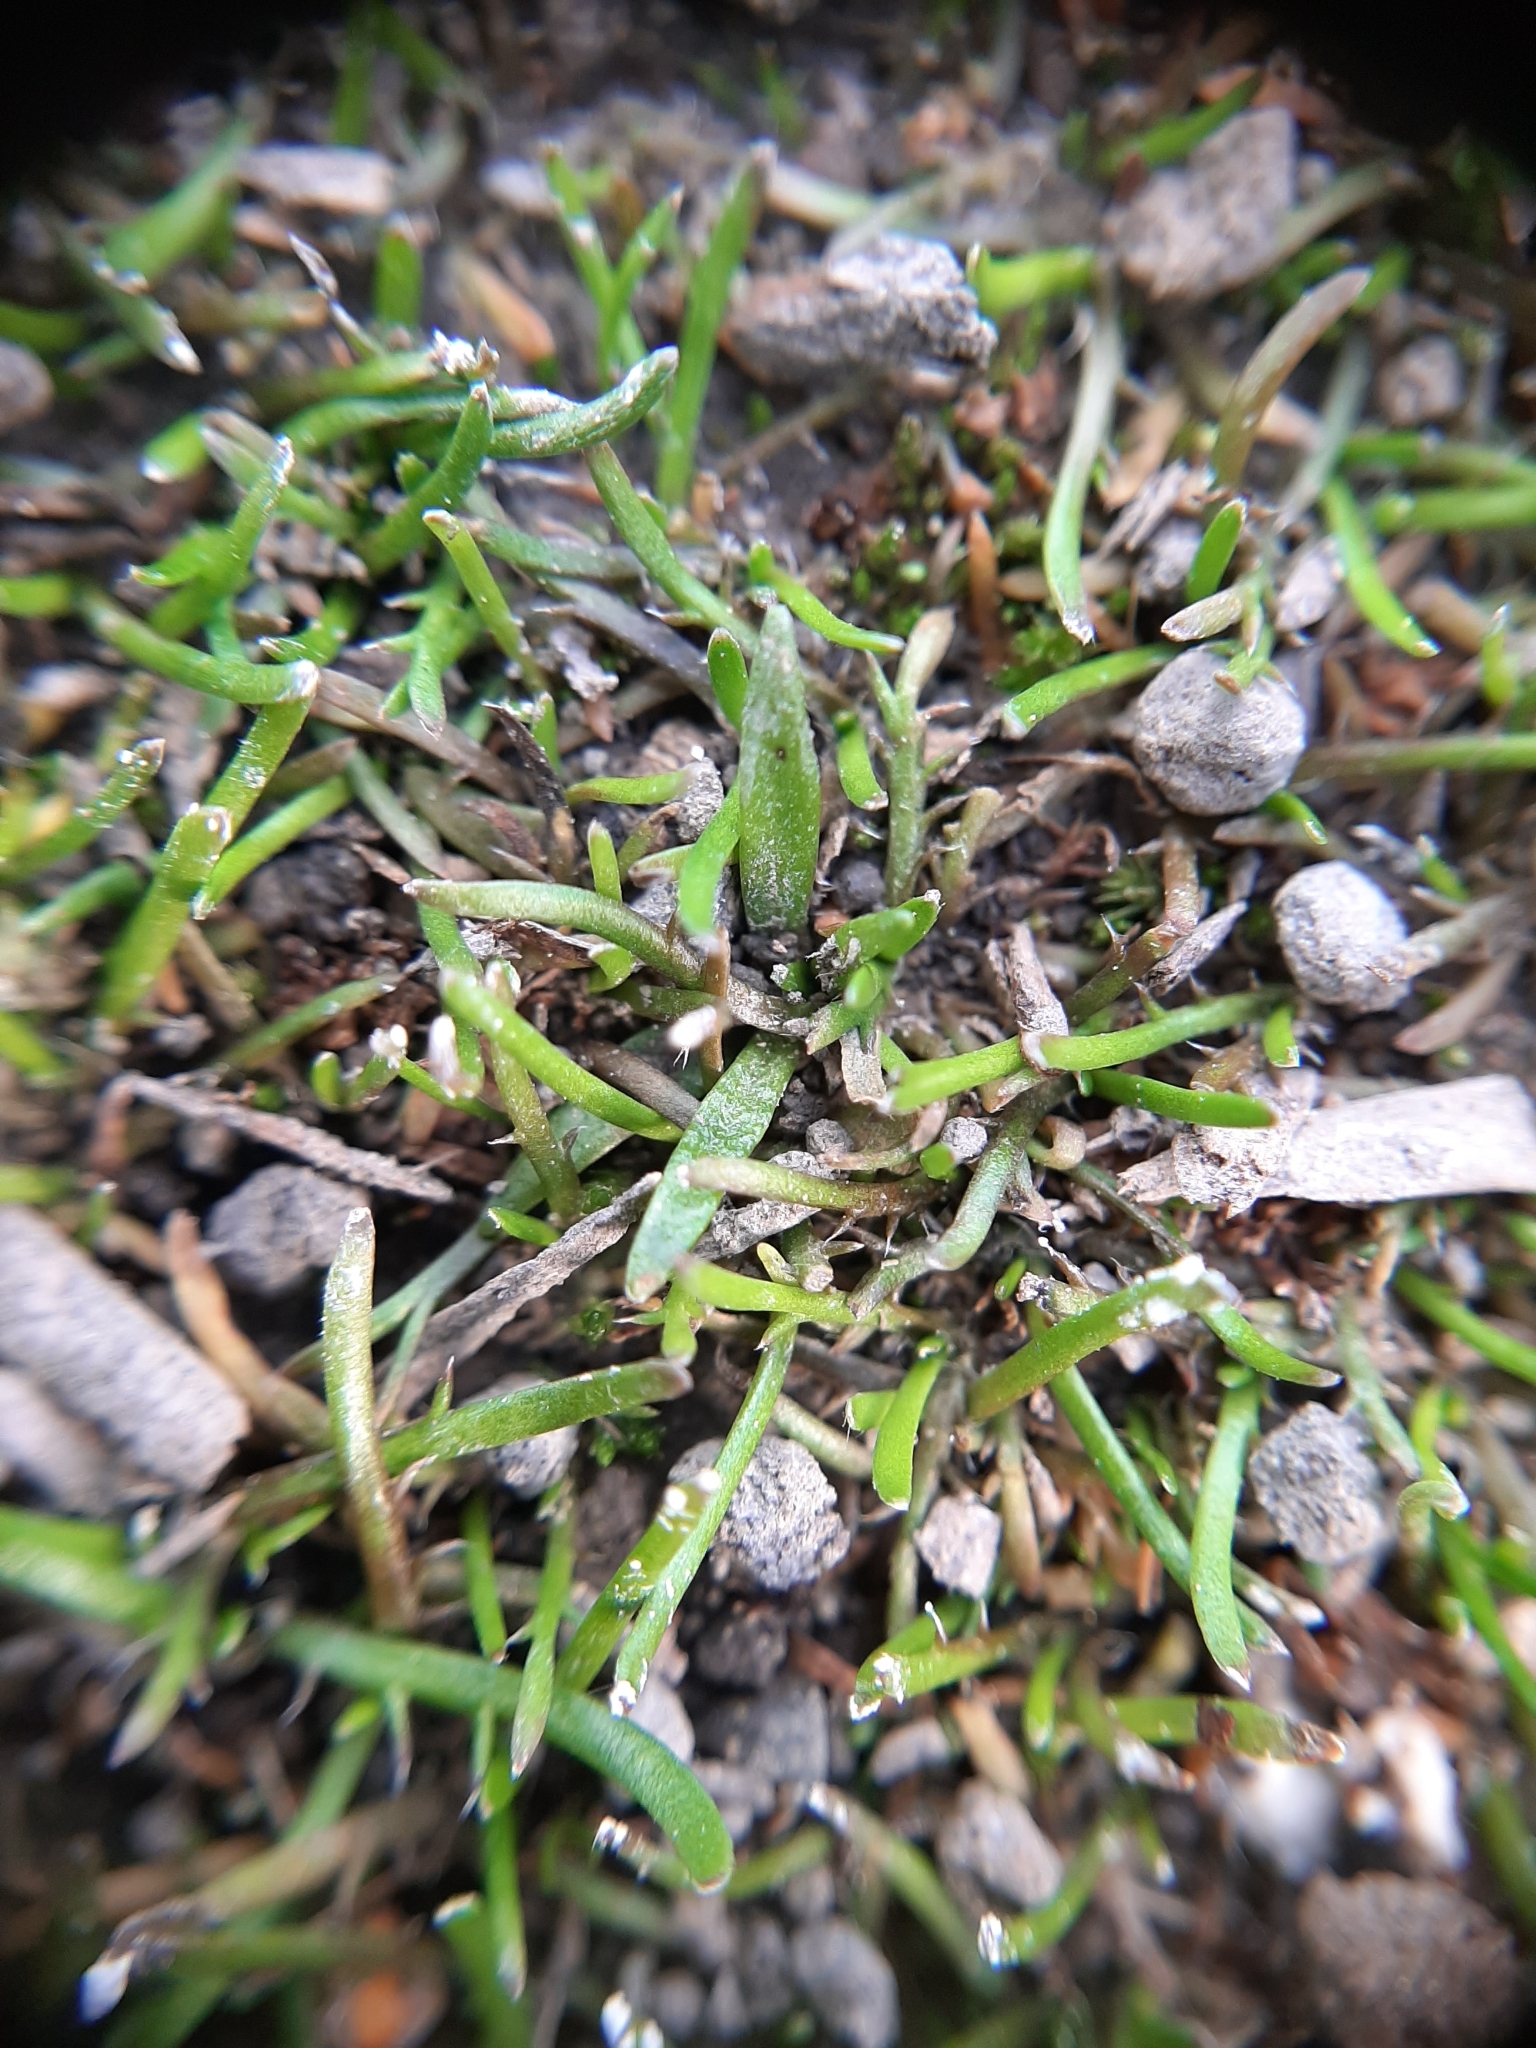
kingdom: Plantae
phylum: Tracheophyta
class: Magnoliopsida
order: Asterales
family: Asteraceae
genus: Leptinella
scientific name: Leptinella maniototo
